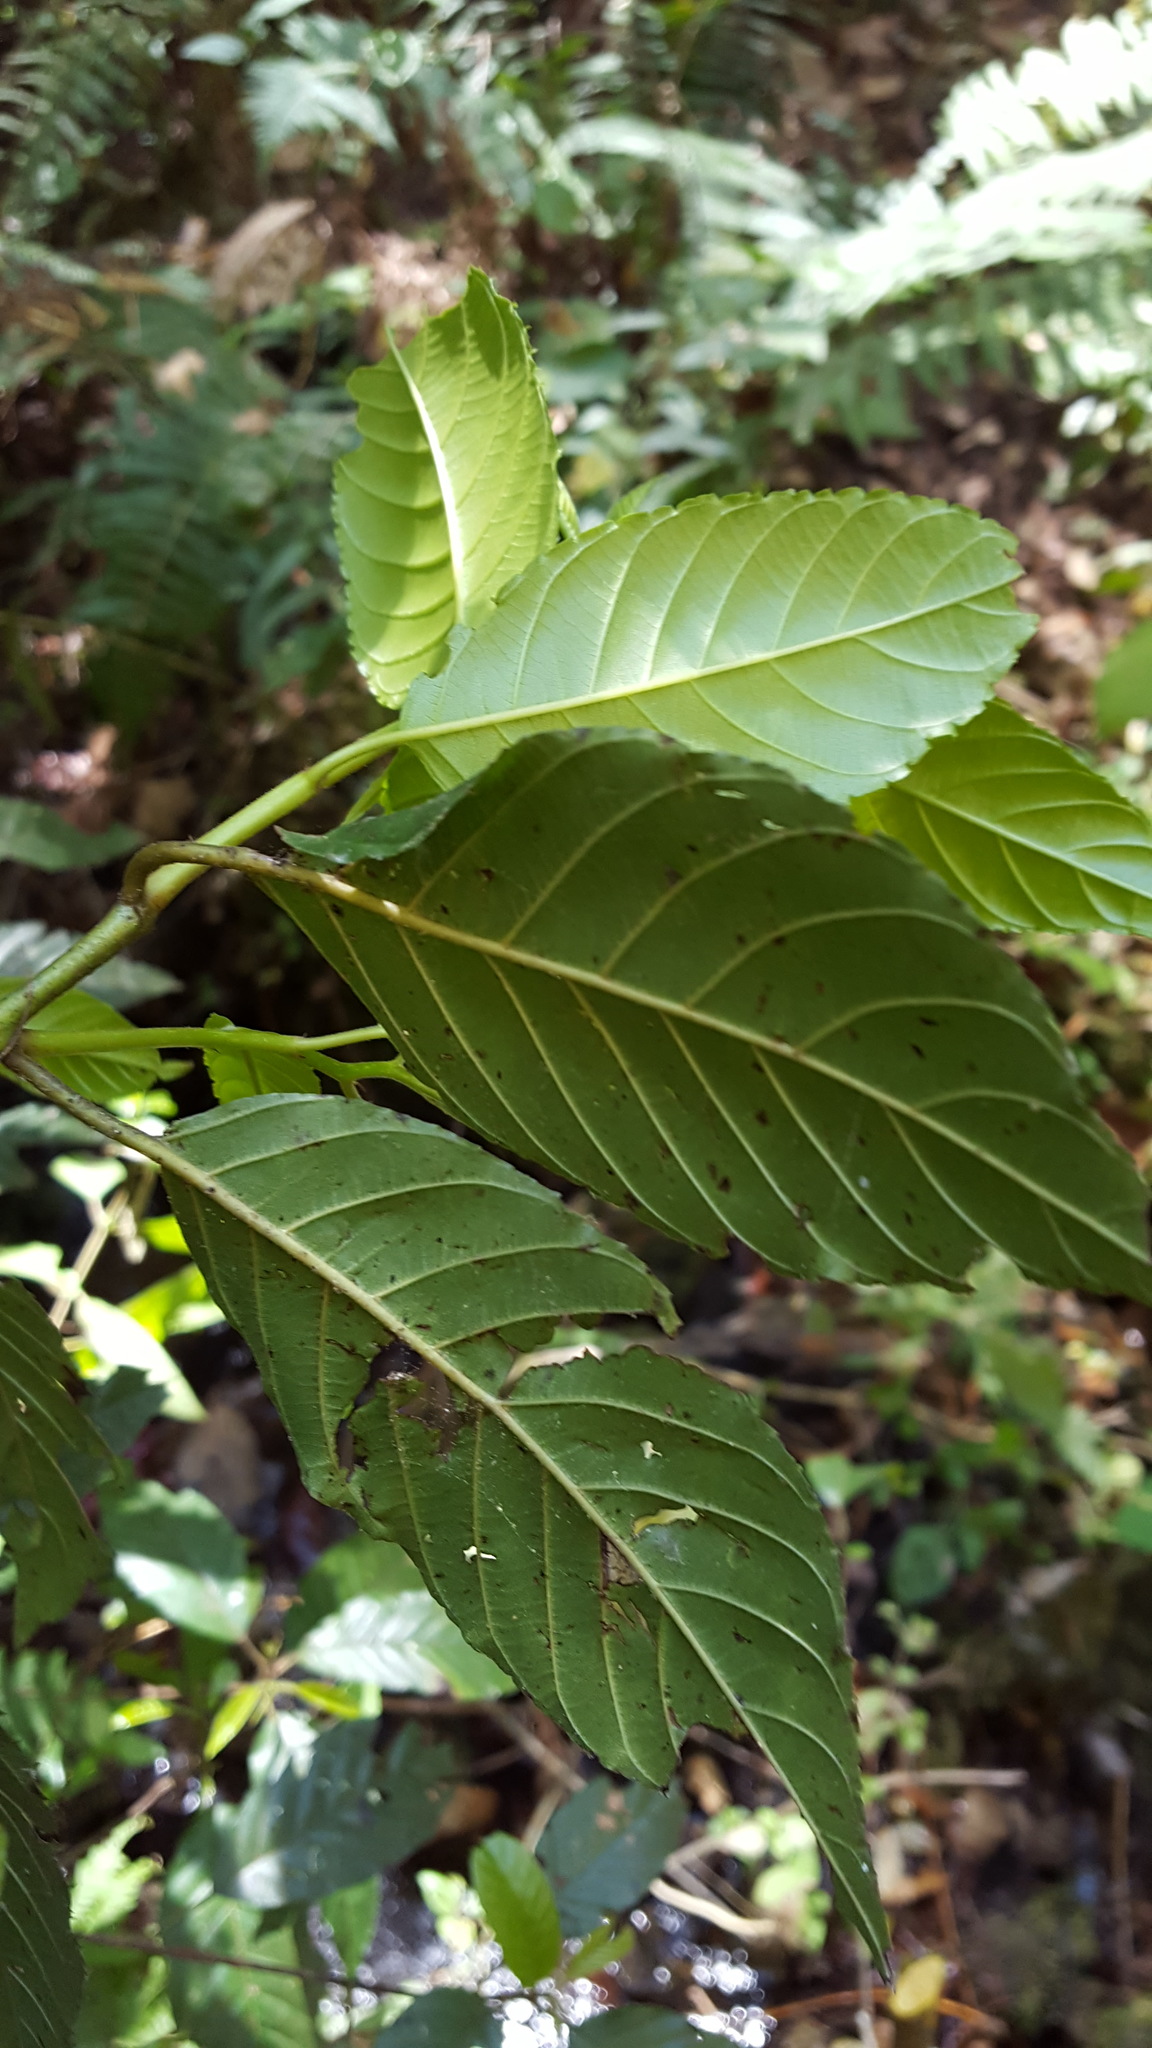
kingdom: Plantae
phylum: Tracheophyta
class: Magnoliopsida
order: Fagales
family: Betulaceae
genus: Alnus
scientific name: Alnus acuminata
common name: Alder
